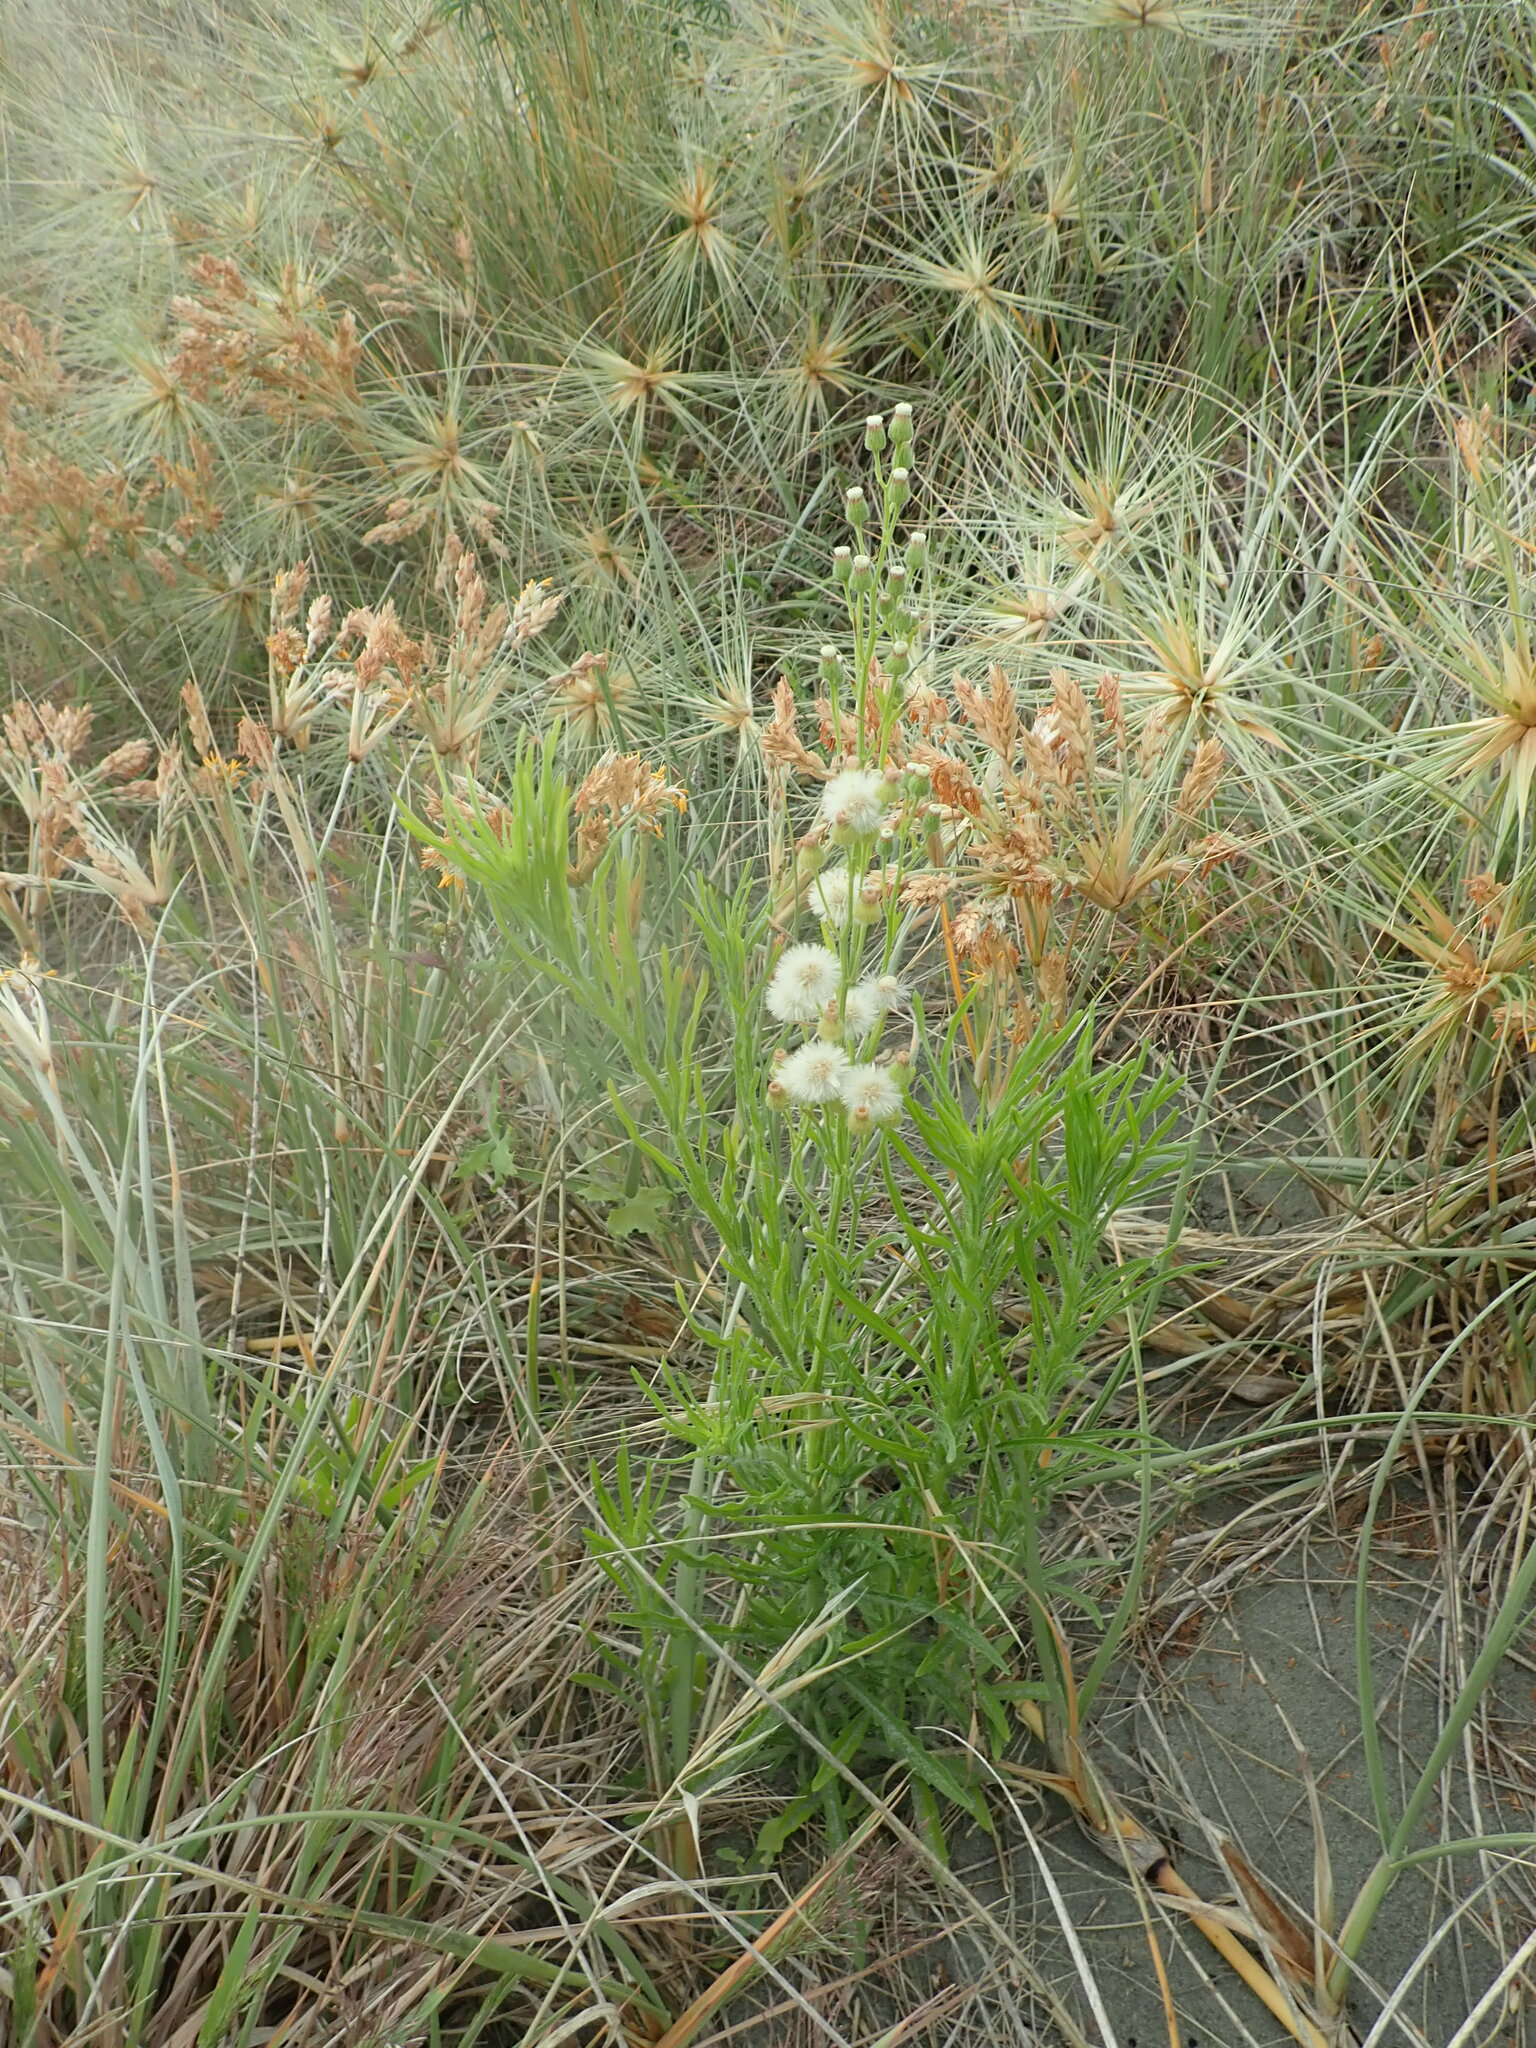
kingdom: Plantae
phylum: Tracheophyta
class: Magnoliopsida
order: Asterales
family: Asteraceae
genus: Erigeron
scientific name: Erigeron sumatrensis
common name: Daisy
